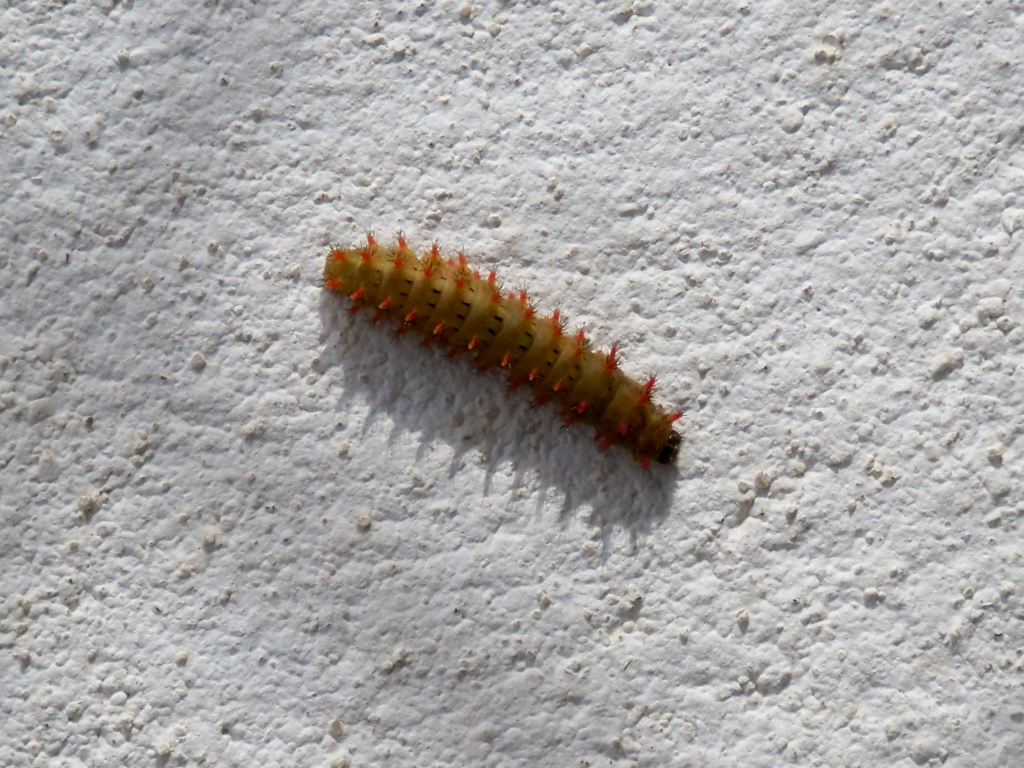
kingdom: Animalia
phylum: Arthropoda
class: Insecta
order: Lepidoptera
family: Papilionidae
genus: Zerynthia
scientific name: Zerynthia rumina
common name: Spanish festoon
